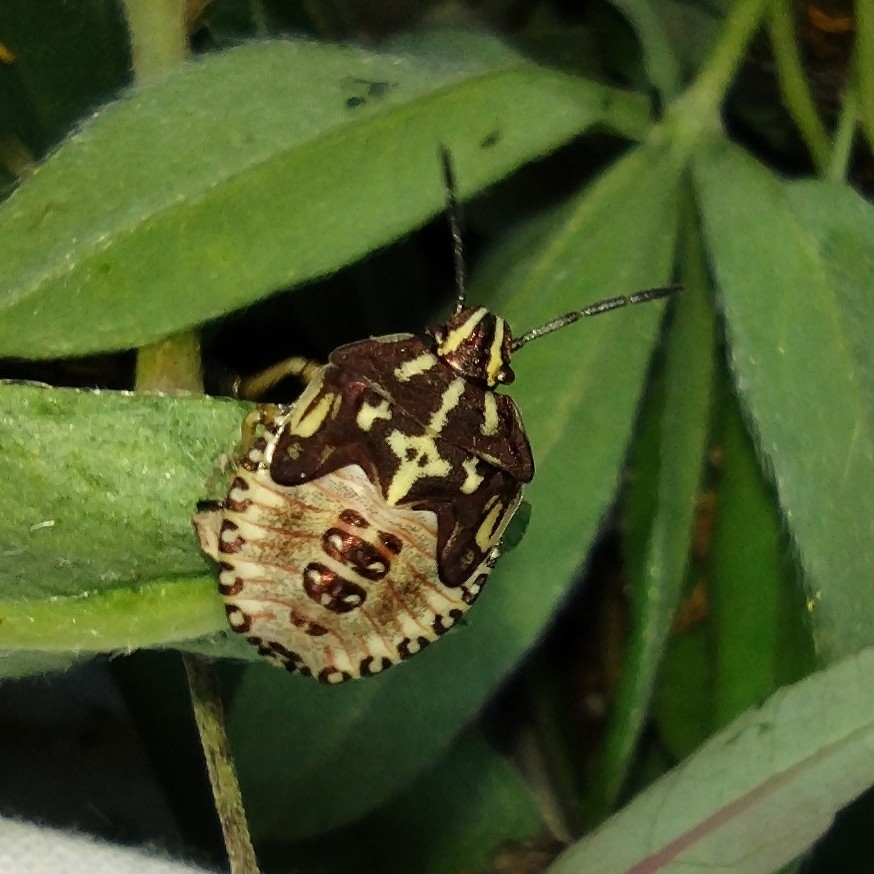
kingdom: Animalia
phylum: Arthropoda
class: Insecta
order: Hemiptera
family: Pentatomidae
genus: Carpocoris
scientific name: Carpocoris purpureipennis
